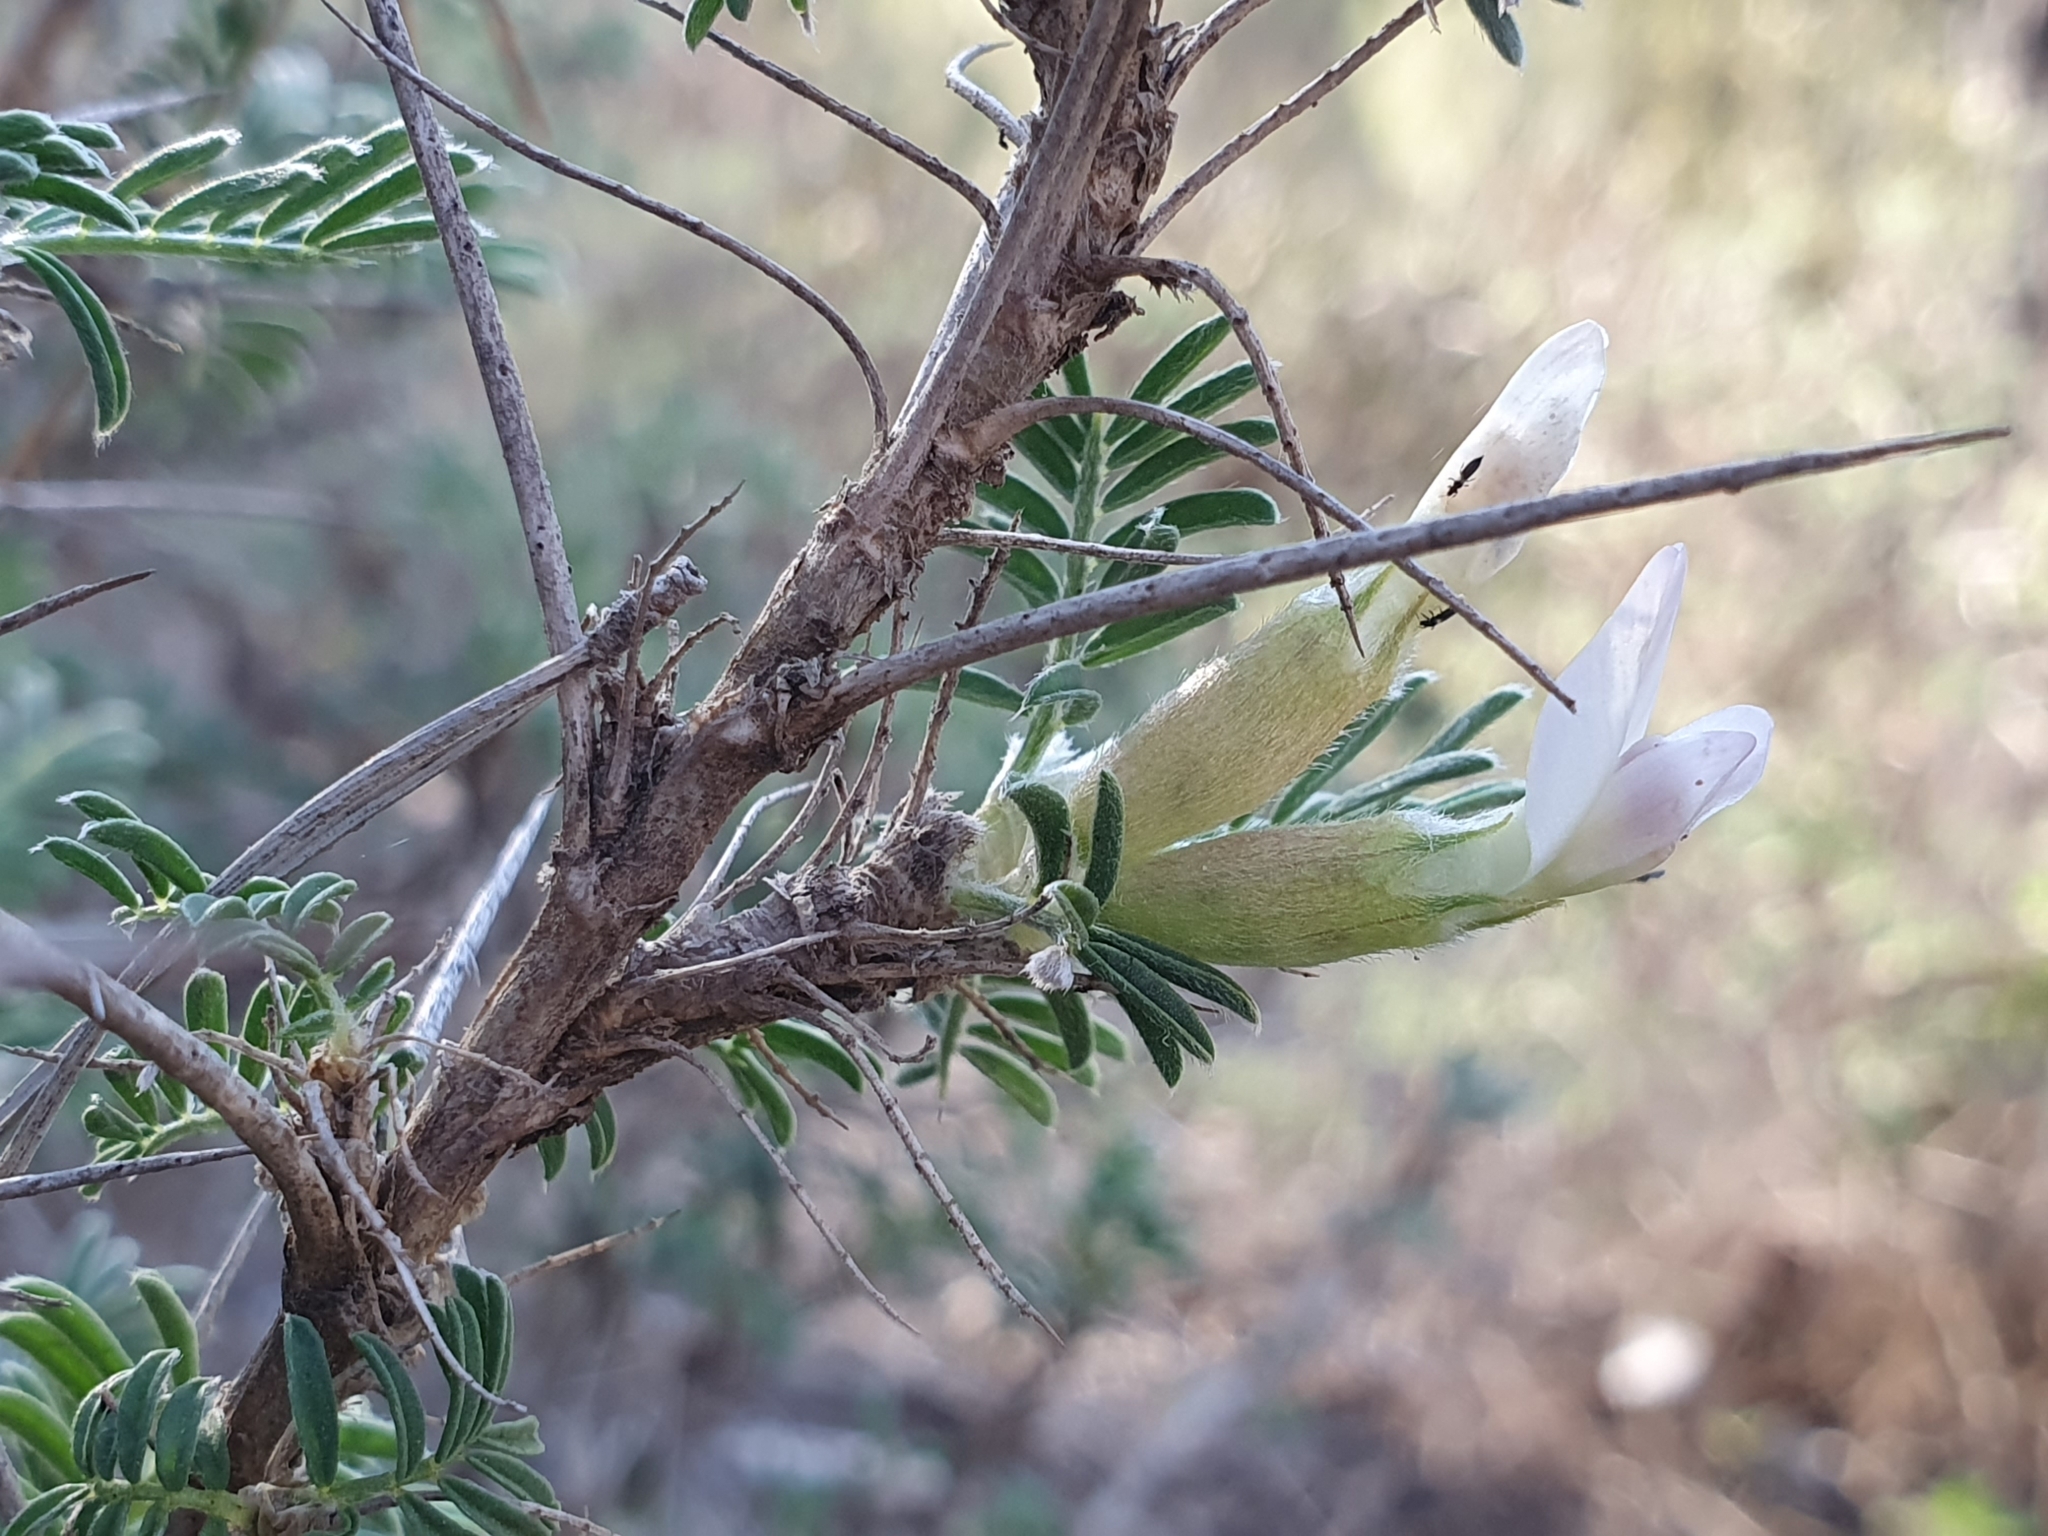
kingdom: Plantae
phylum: Tracheophyta
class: Magnoliopsida
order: Fabales
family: Fabaceae
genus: Astragalus
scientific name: Astragalus armatus
